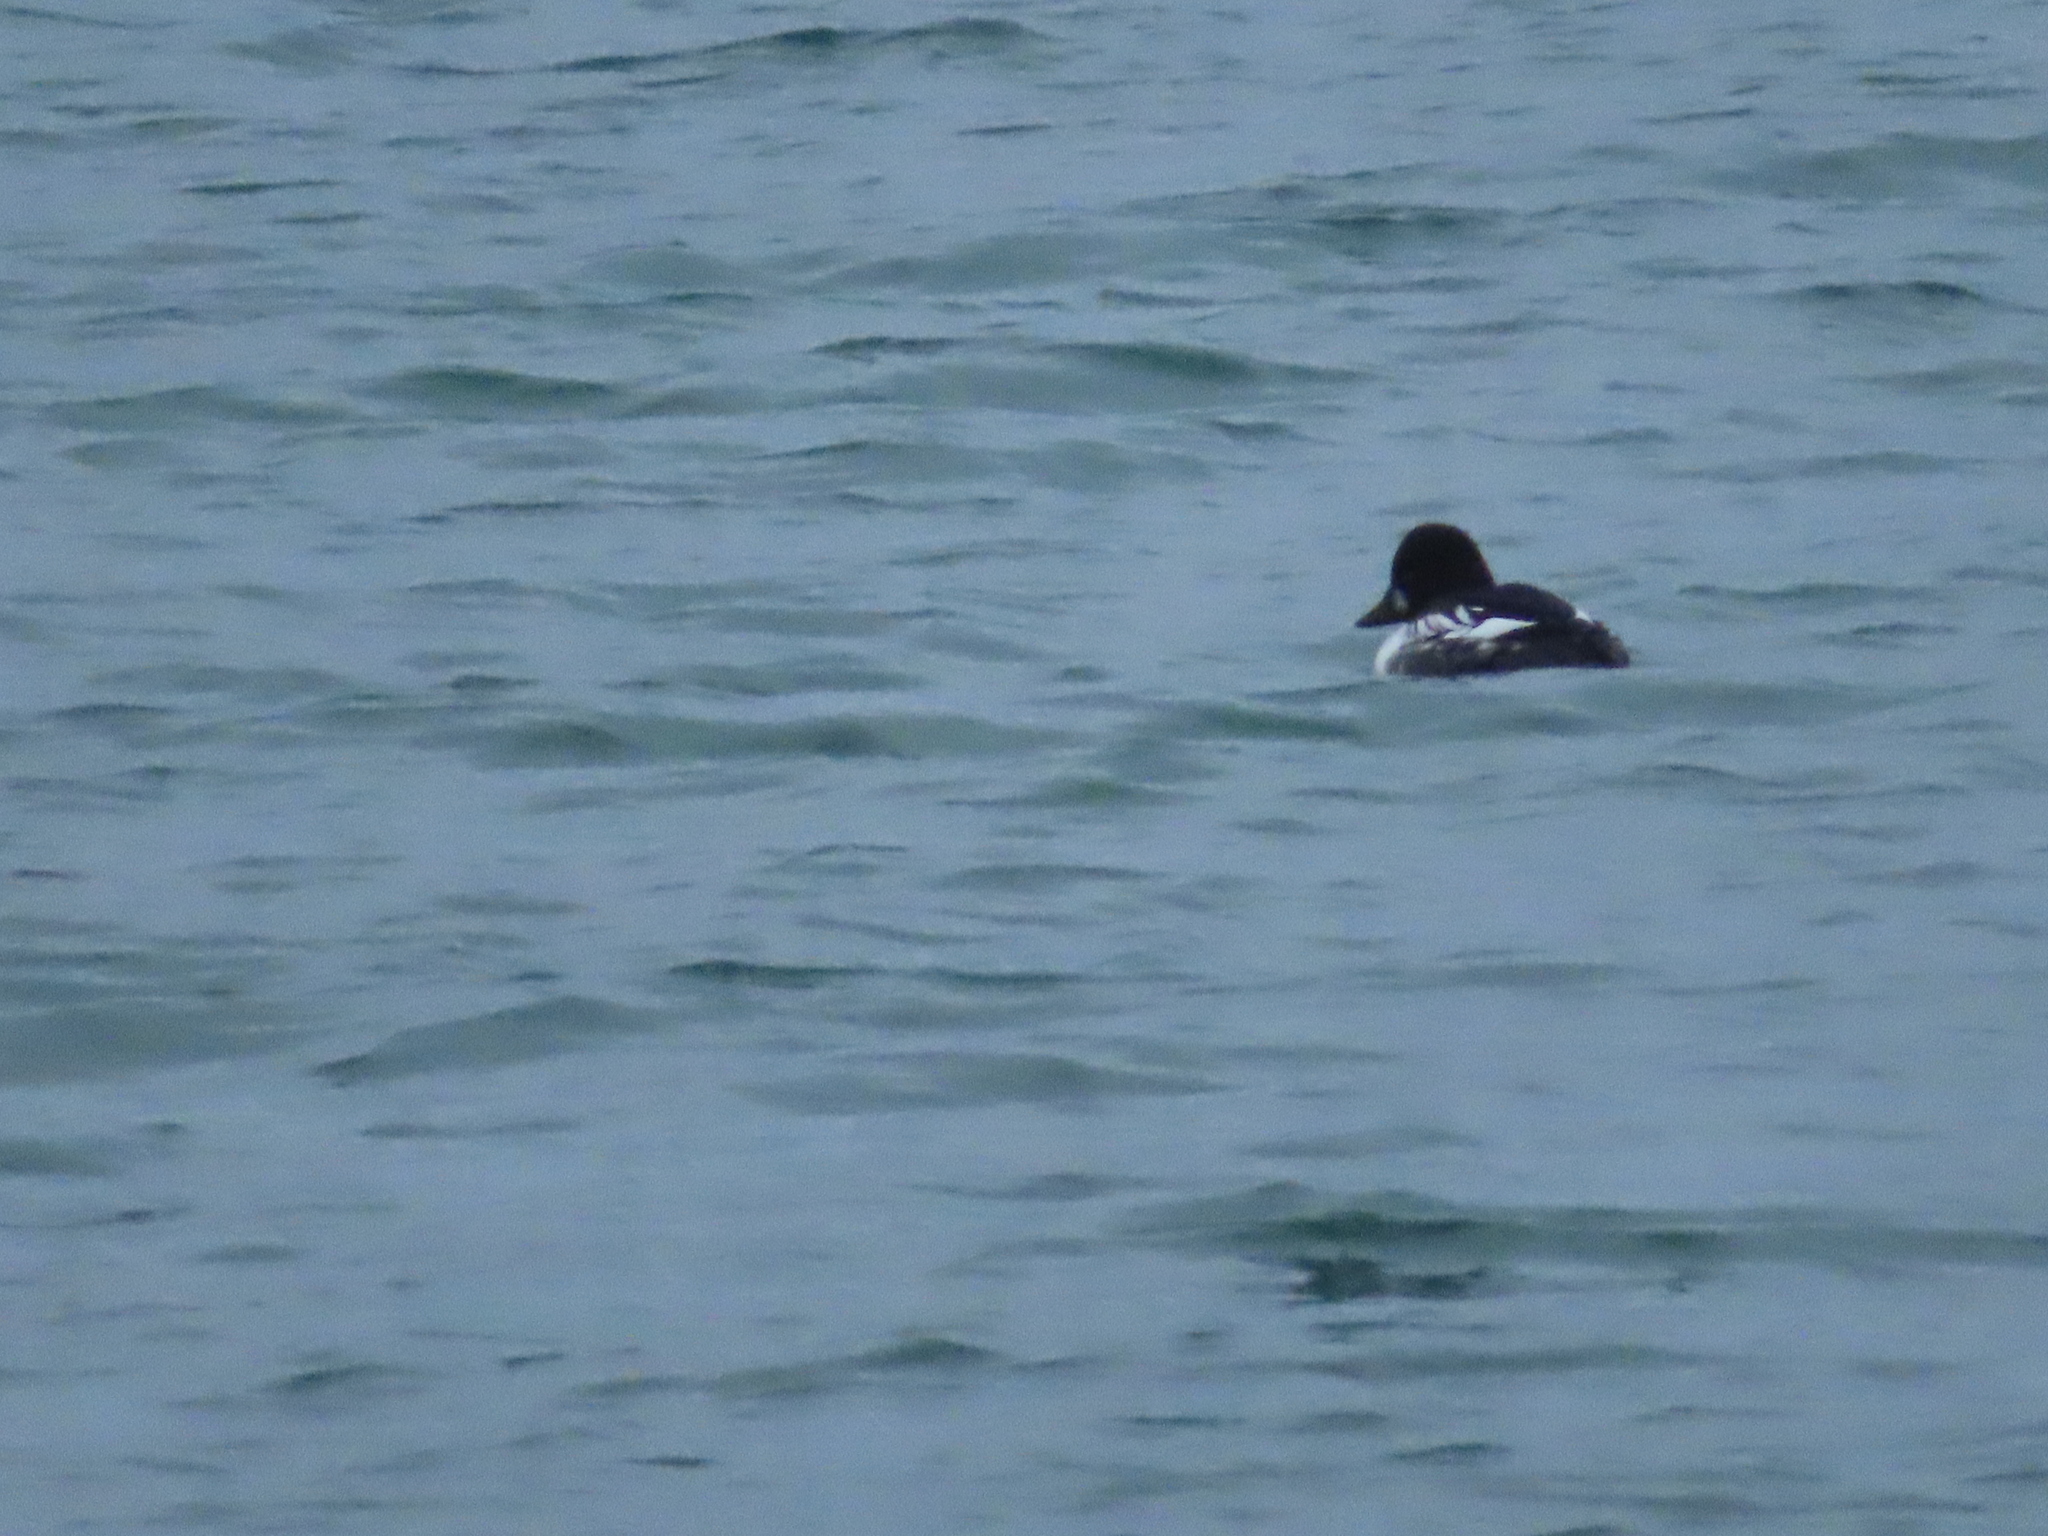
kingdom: Animalia
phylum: Chordata
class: Aves
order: Anseriformes
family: Anatidae
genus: Bucephala
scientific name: Bucephala clangula
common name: Common goldeneye
